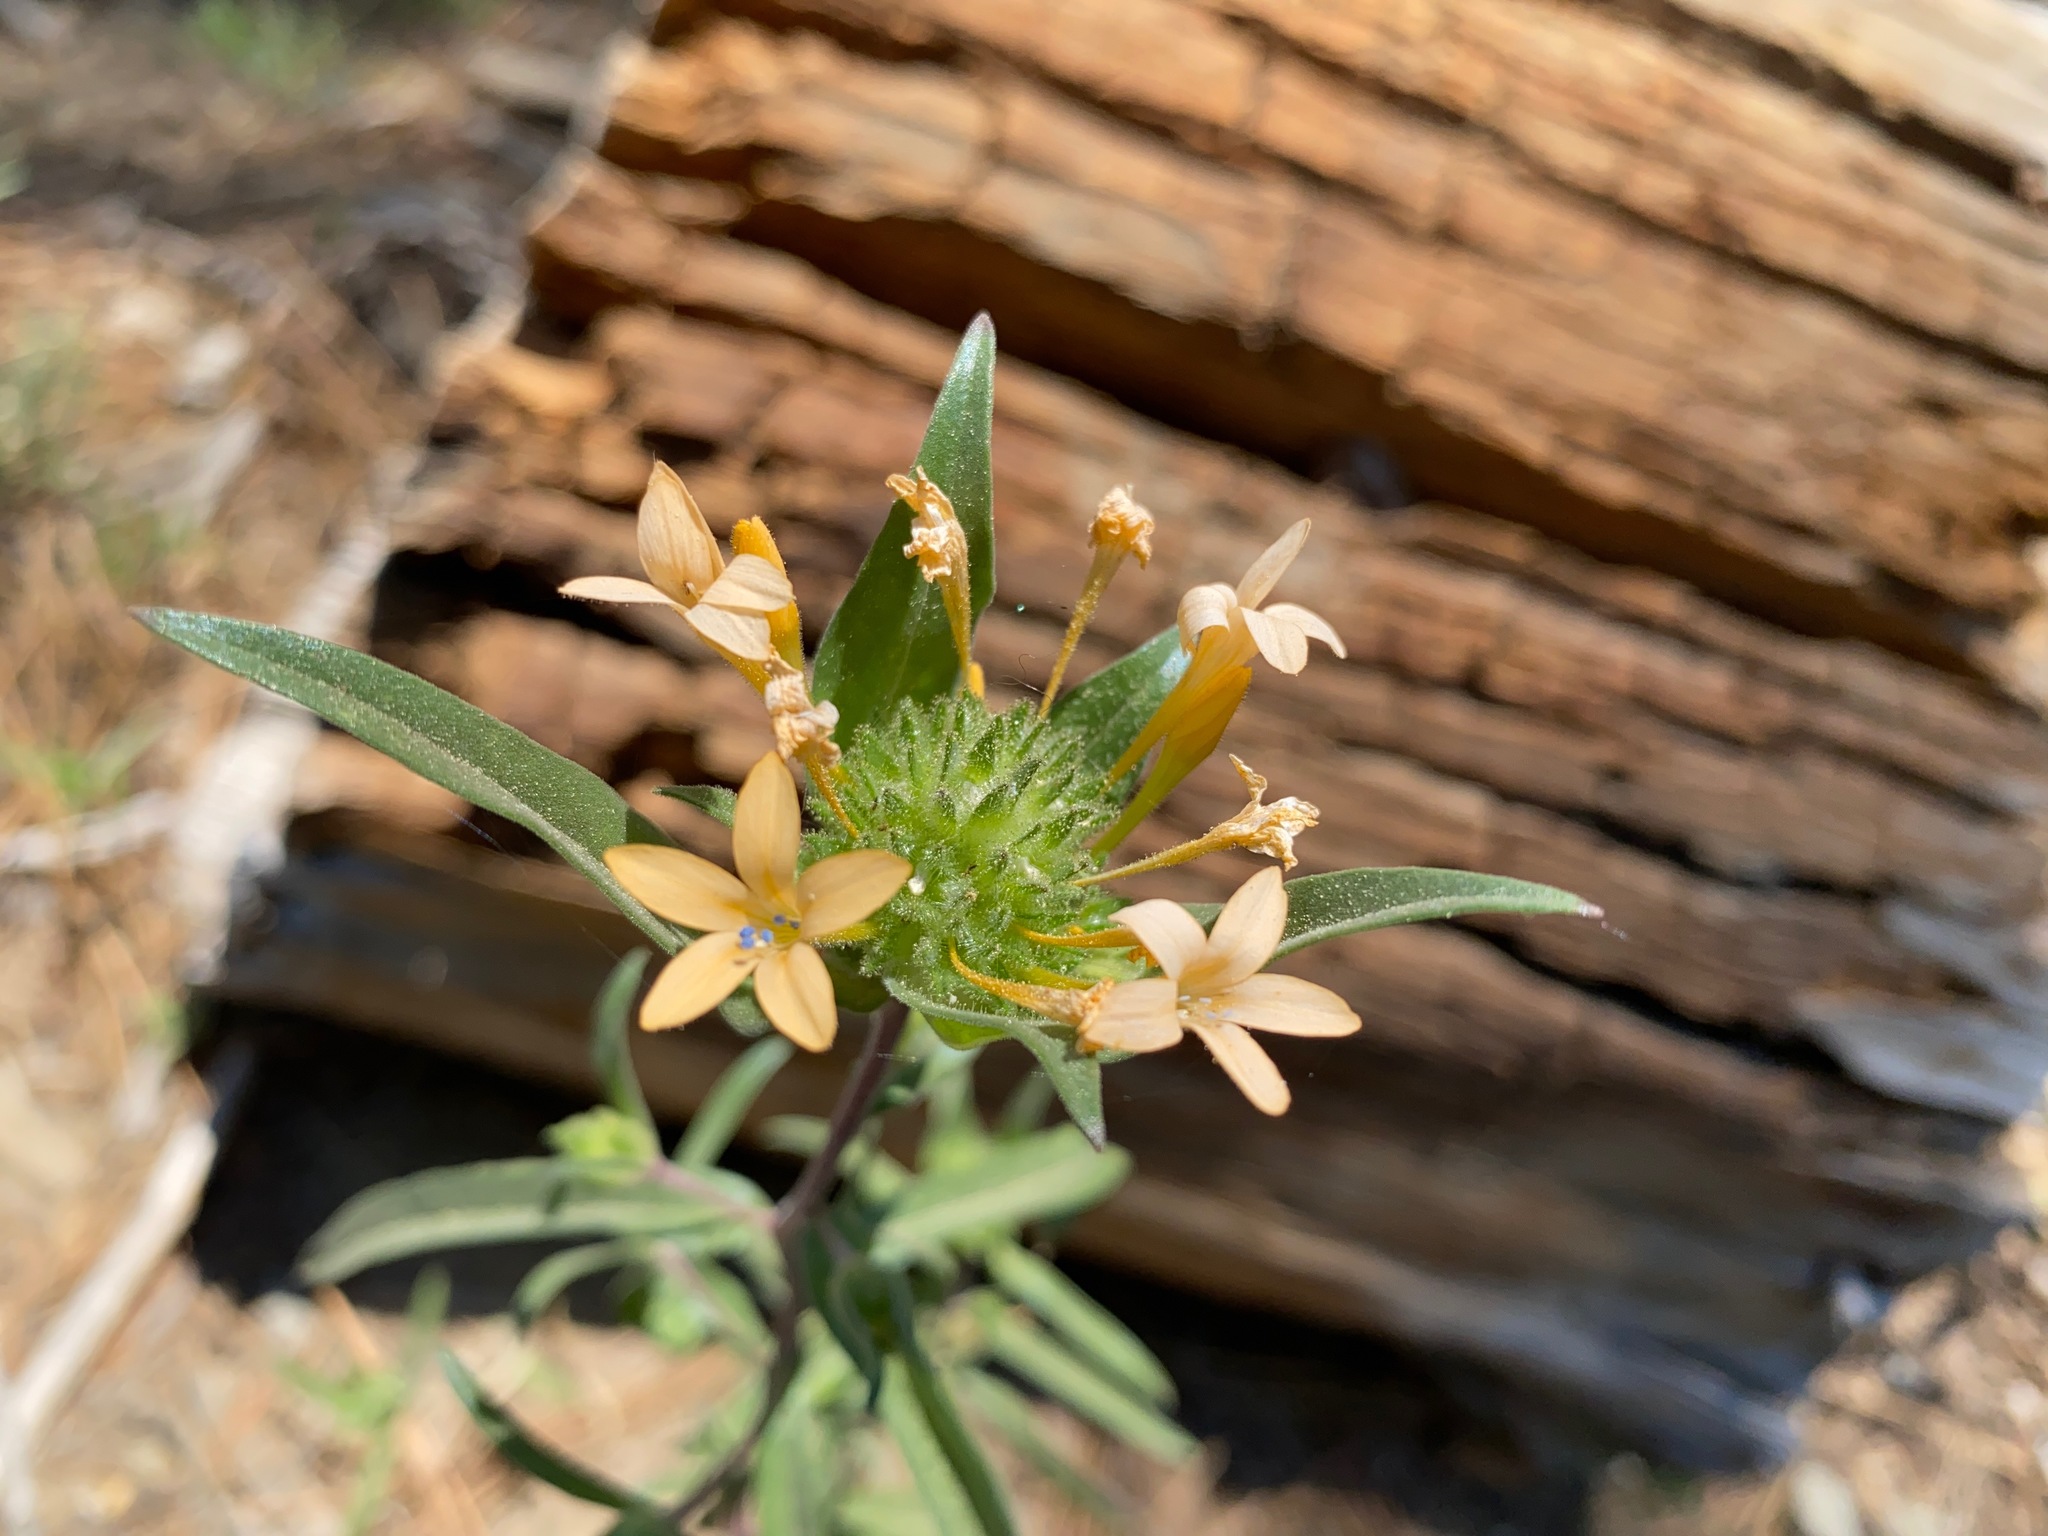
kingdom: Plantae
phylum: Tracheophyta
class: Magnoliopsida
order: Ericales
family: Polemoniaceae
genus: Collomia
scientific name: Collomia grandiflora
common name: California strawflower
